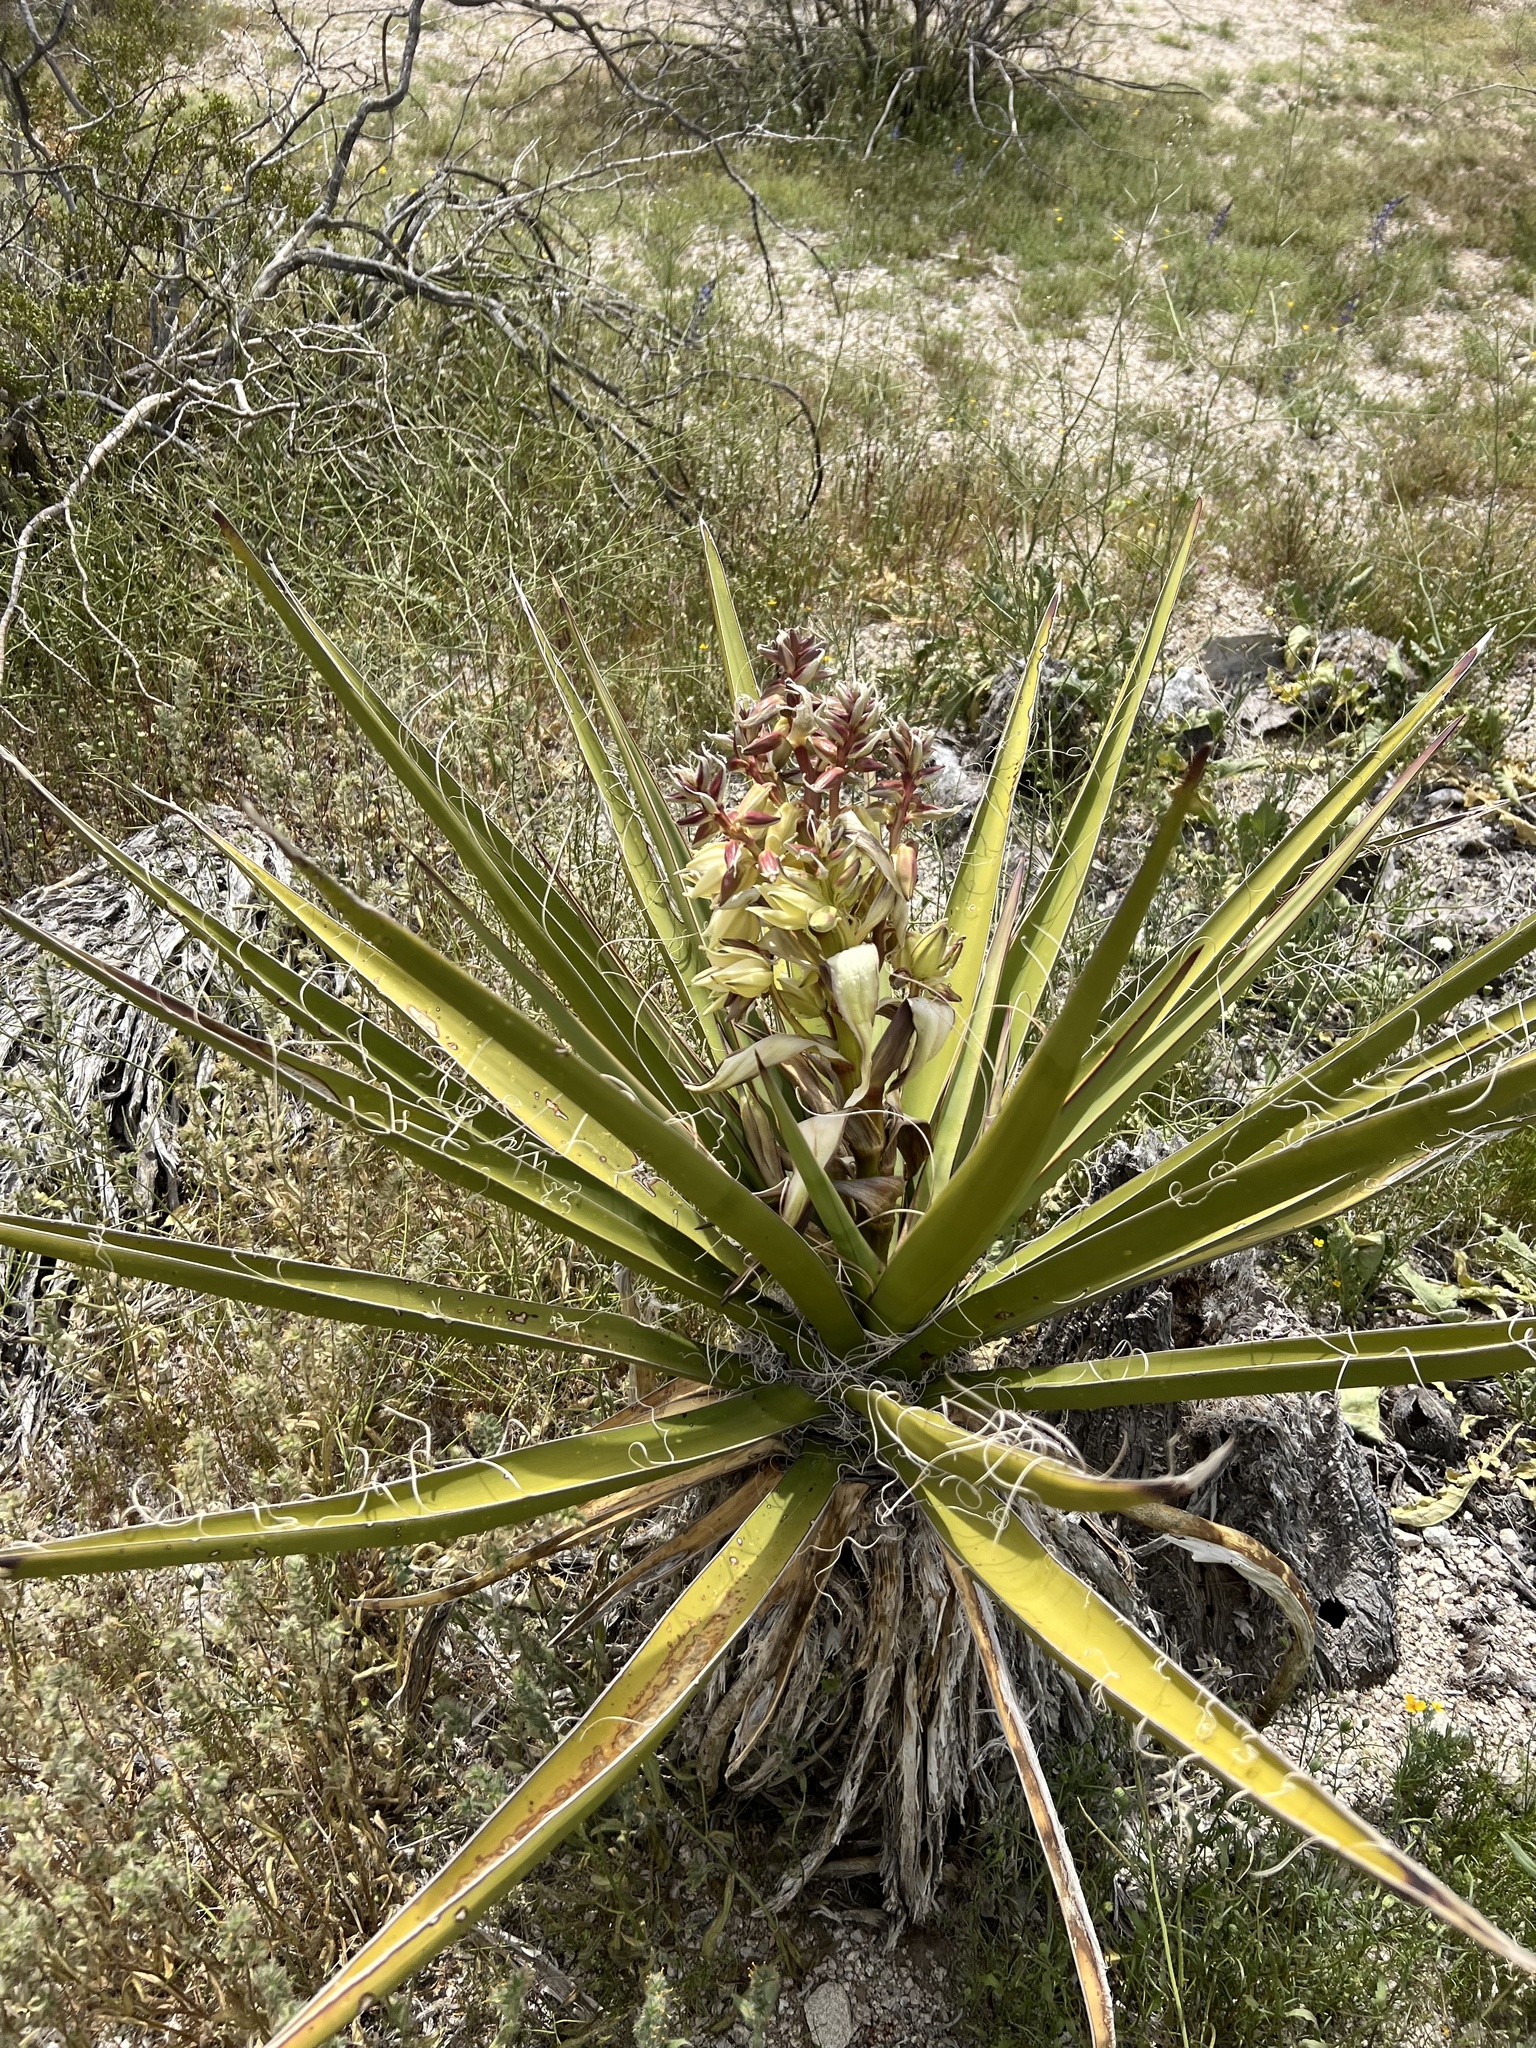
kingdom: Plantae
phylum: Tracheophyta
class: Liliopsida
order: Asparagales
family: Asparagaceae
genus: Yucca
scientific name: Yucca schidigera
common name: Mojave yucca
